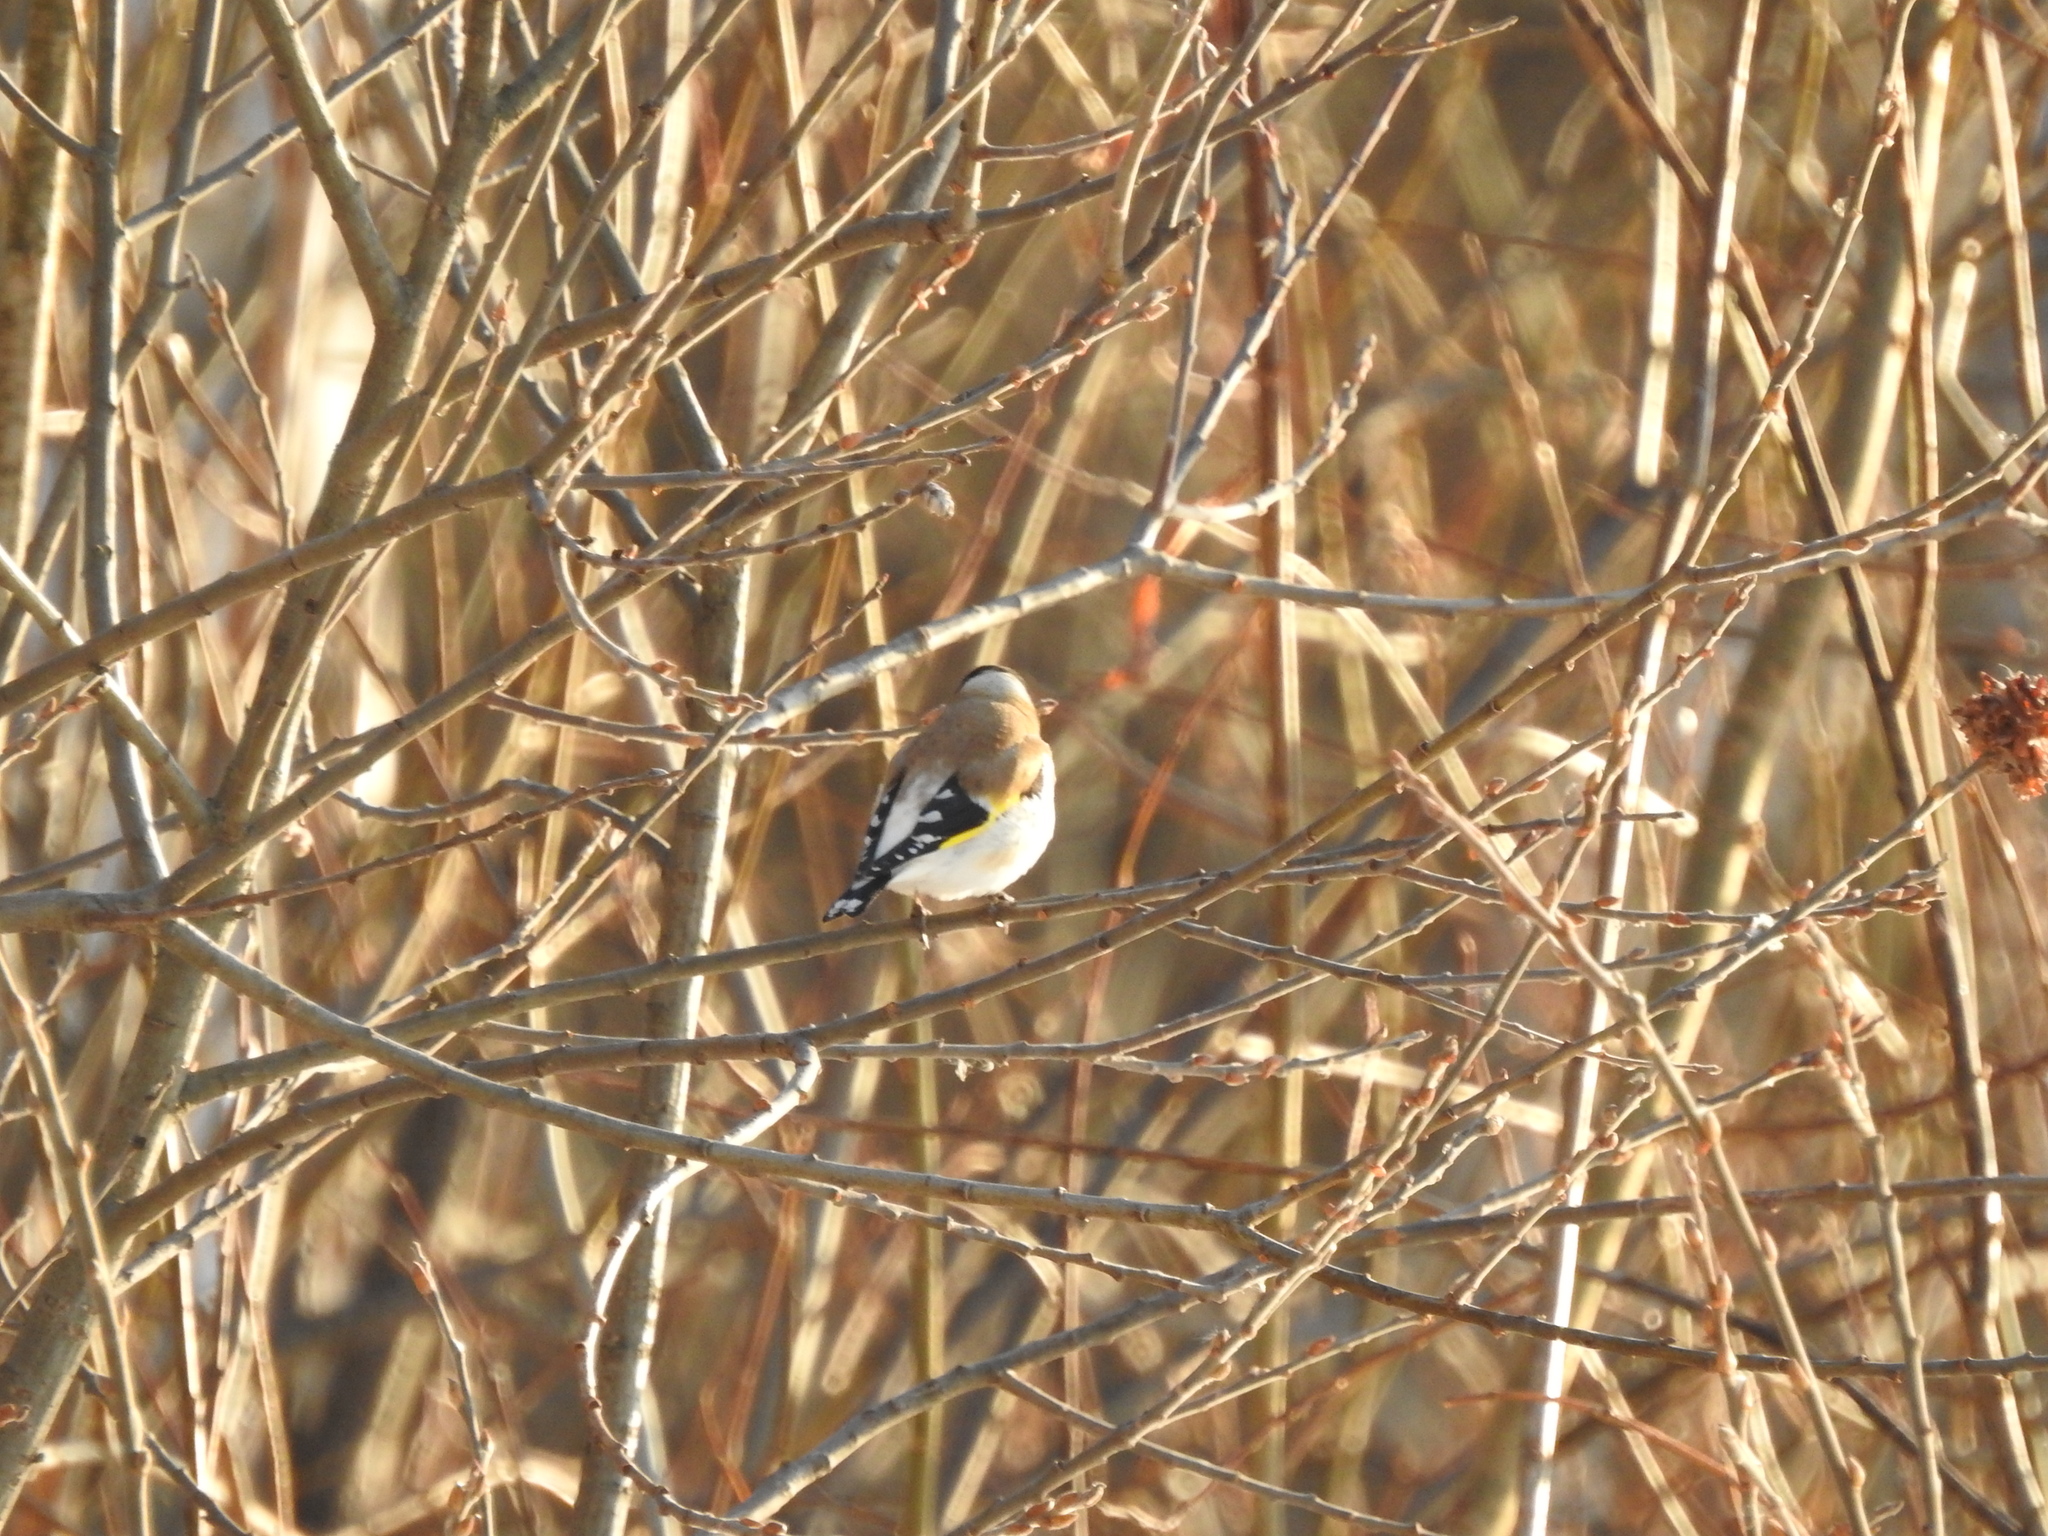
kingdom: Animalia
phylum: Chordata
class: Aves
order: Passeriformes
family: Fringillidae
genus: Carduelis
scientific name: Carduelis carduelis
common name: European goldfinch
